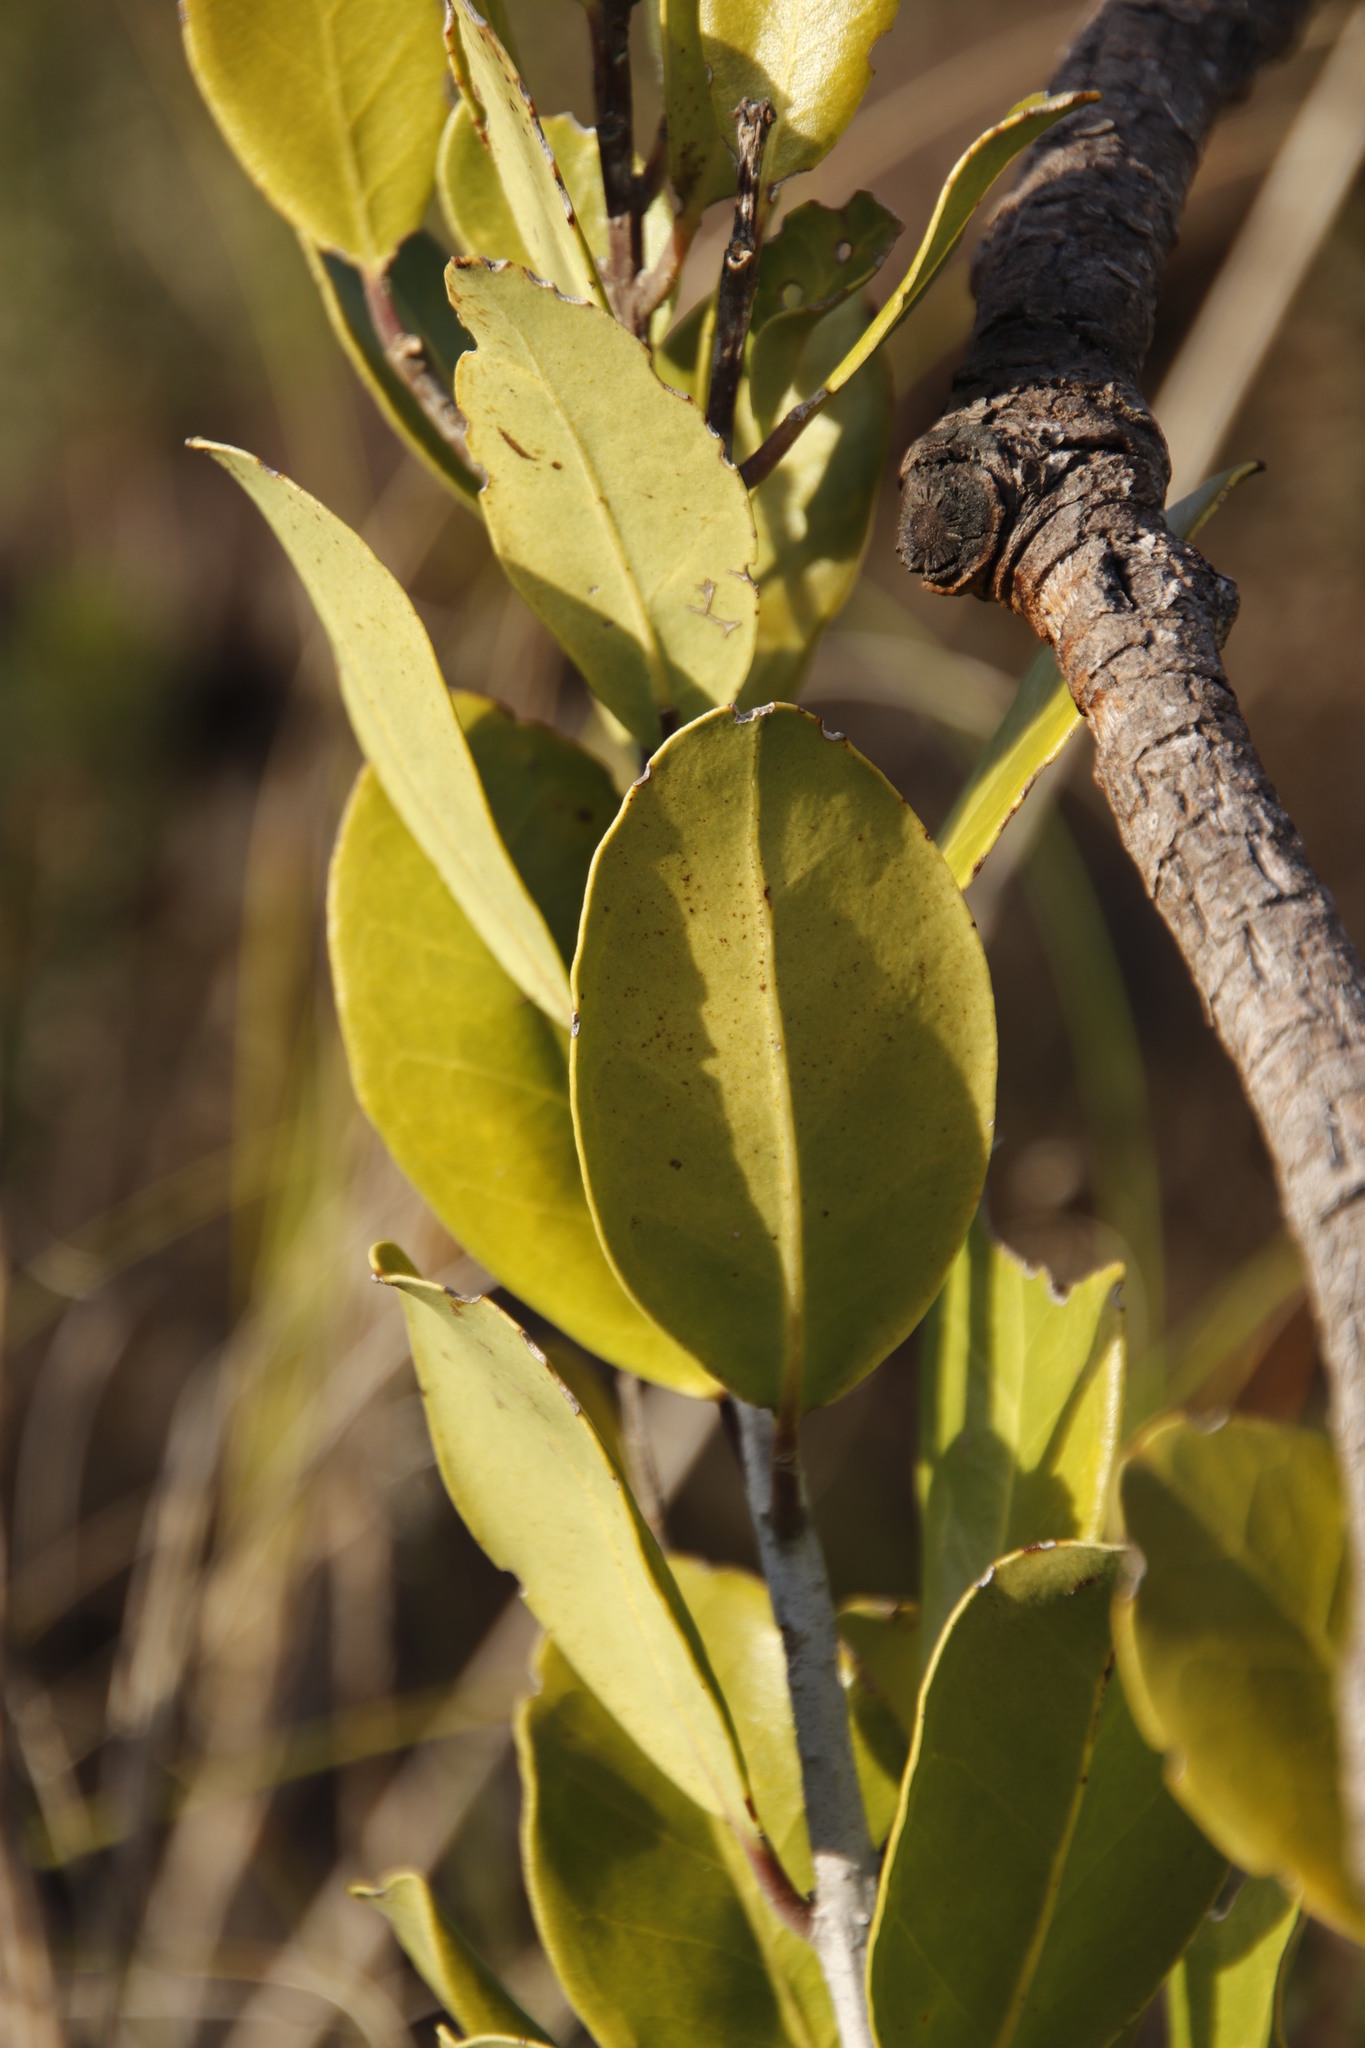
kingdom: Plantae
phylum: Tracheophyta
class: Magnoliopsida
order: Lamiales
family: Oleaceae
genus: Olea
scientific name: Olea capensis
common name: Black ironwood
